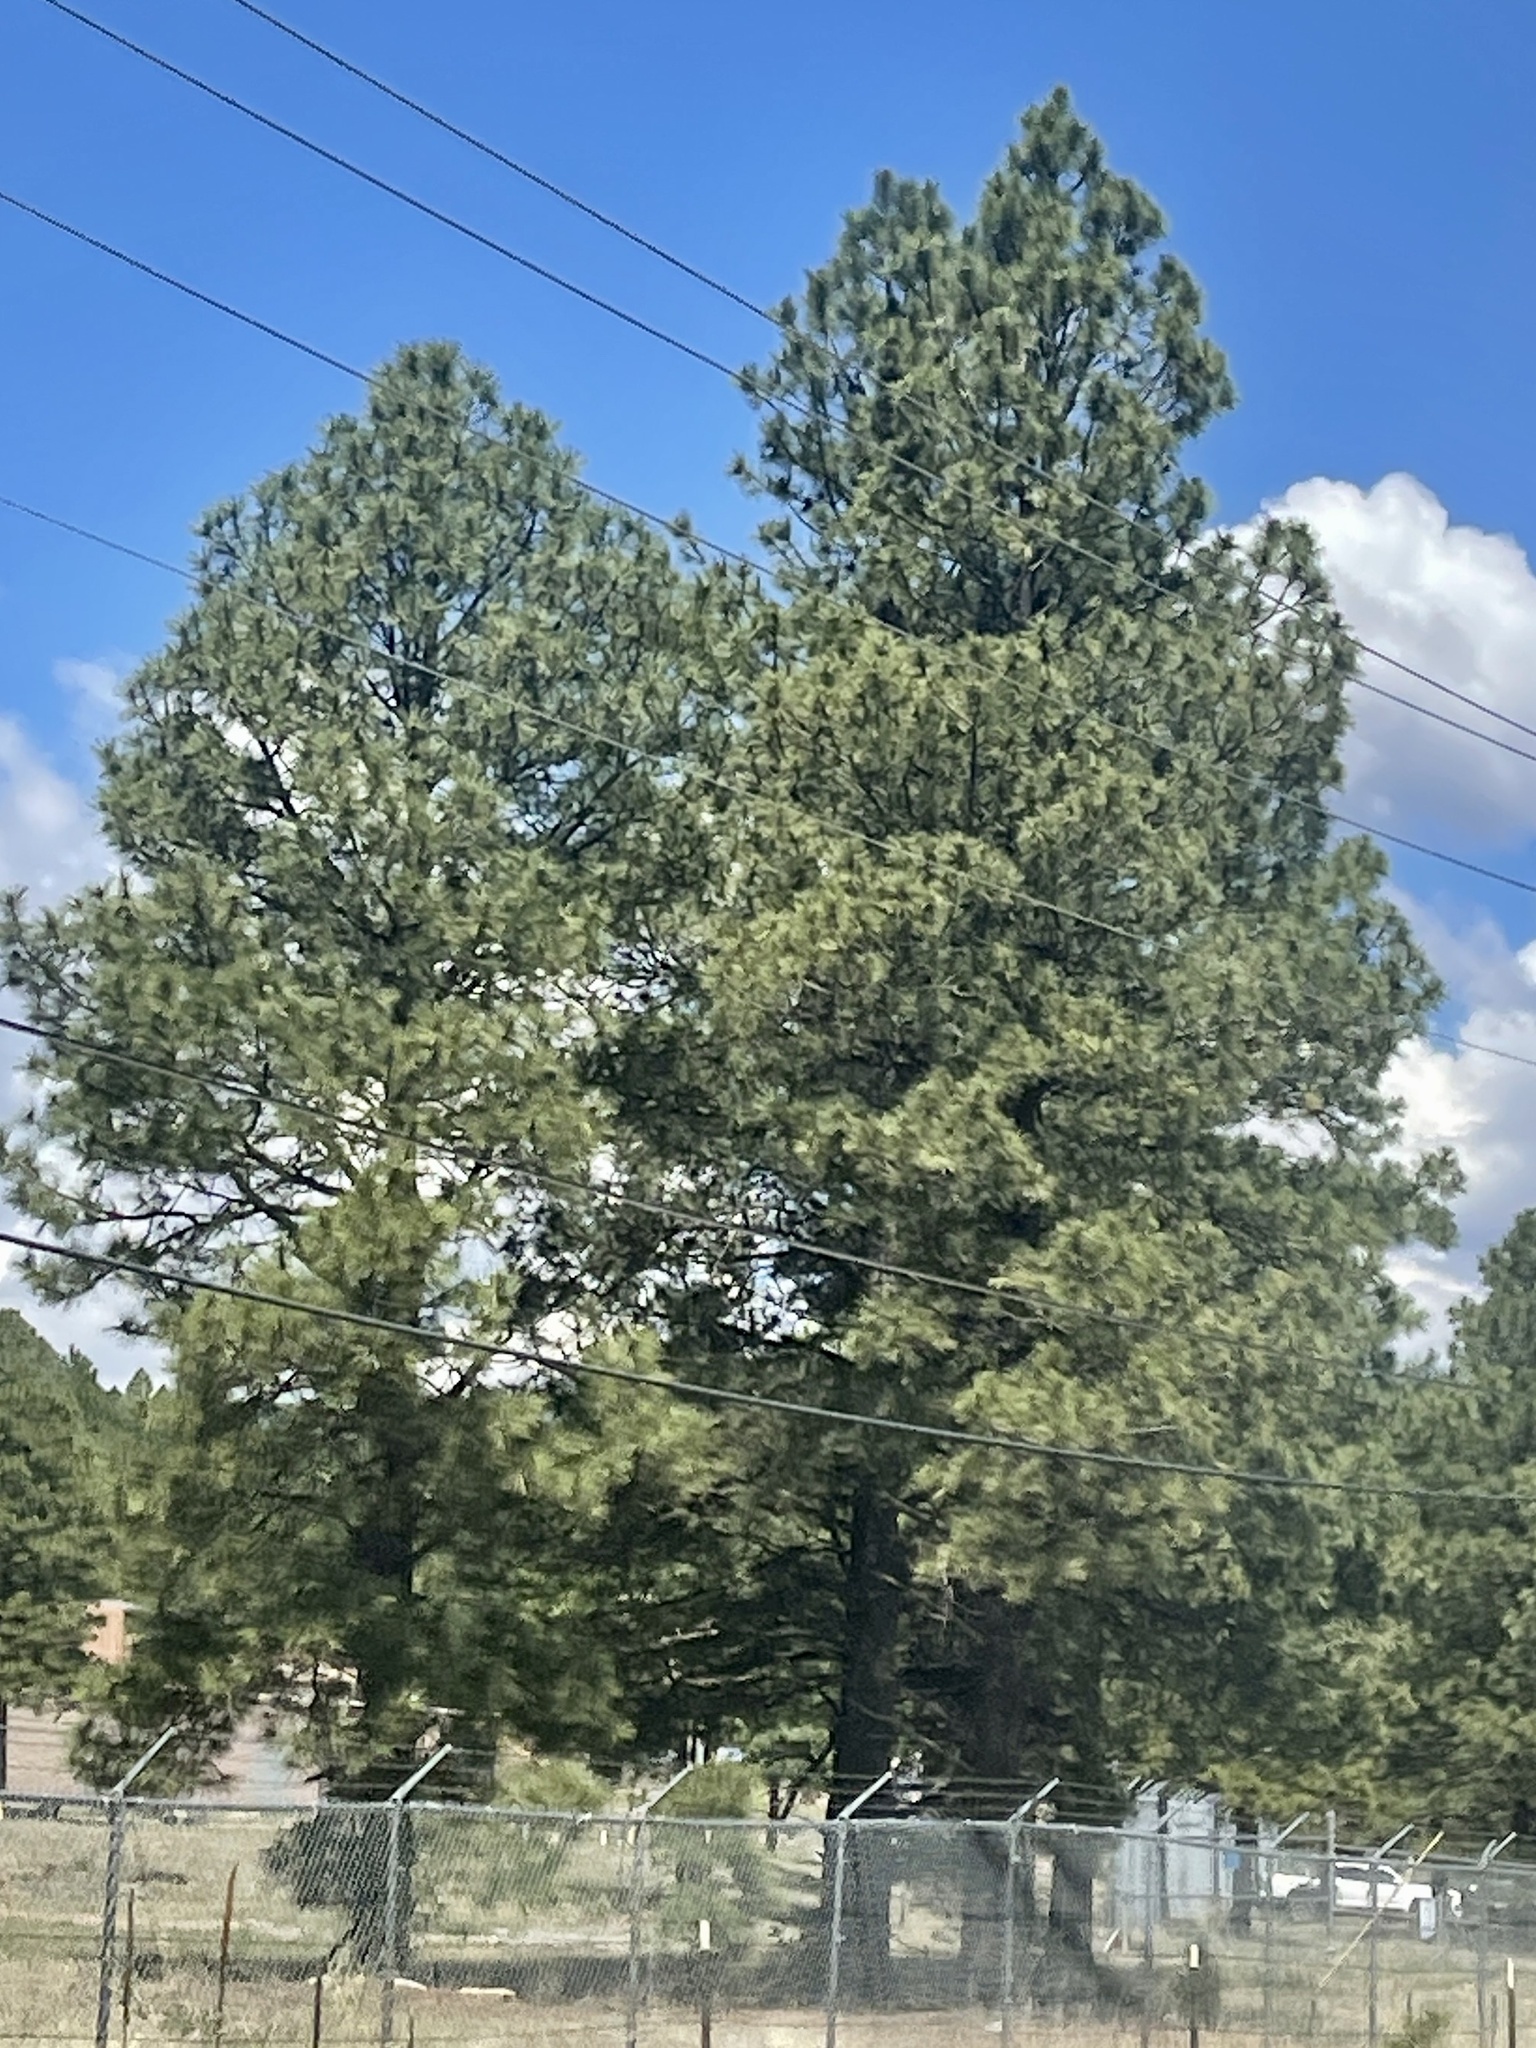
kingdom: Plantae
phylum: Tracheophyta
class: Pinopsida
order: Pinales
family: Pinaceae
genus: Pinus
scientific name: Pinus ponderosa
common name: Western yellow-pine
